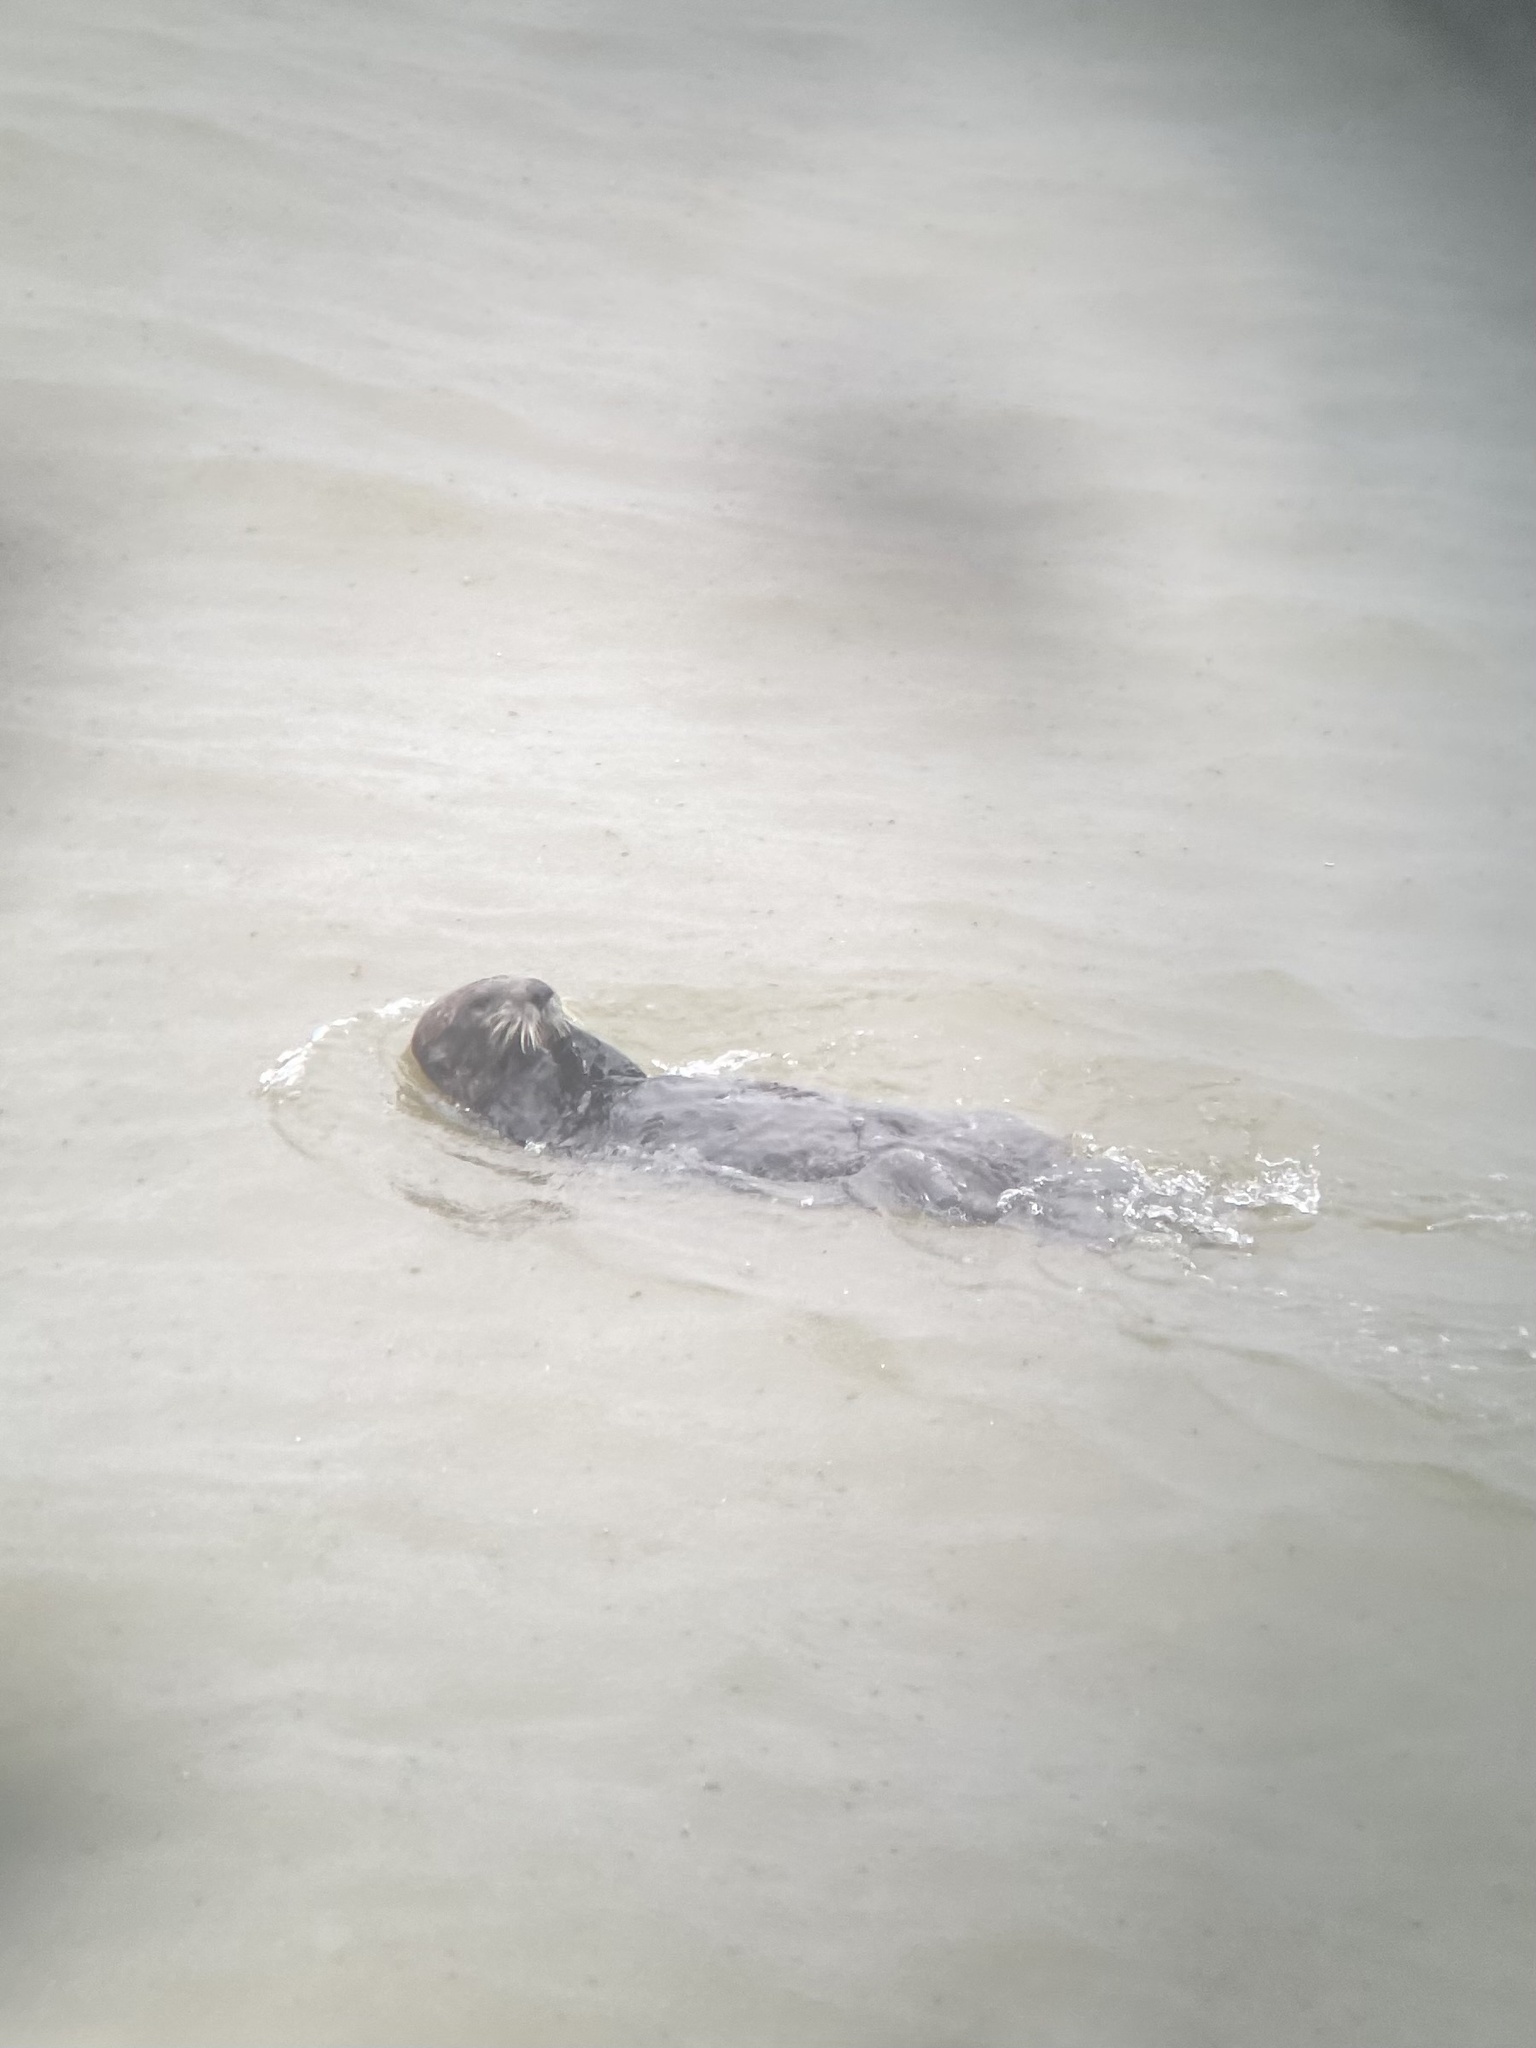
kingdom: Animalia
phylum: Chordata
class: Mammalia
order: Carnivora
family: Mustelidae
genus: Enhydra
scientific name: Enhydra lutris
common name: Sea otter
